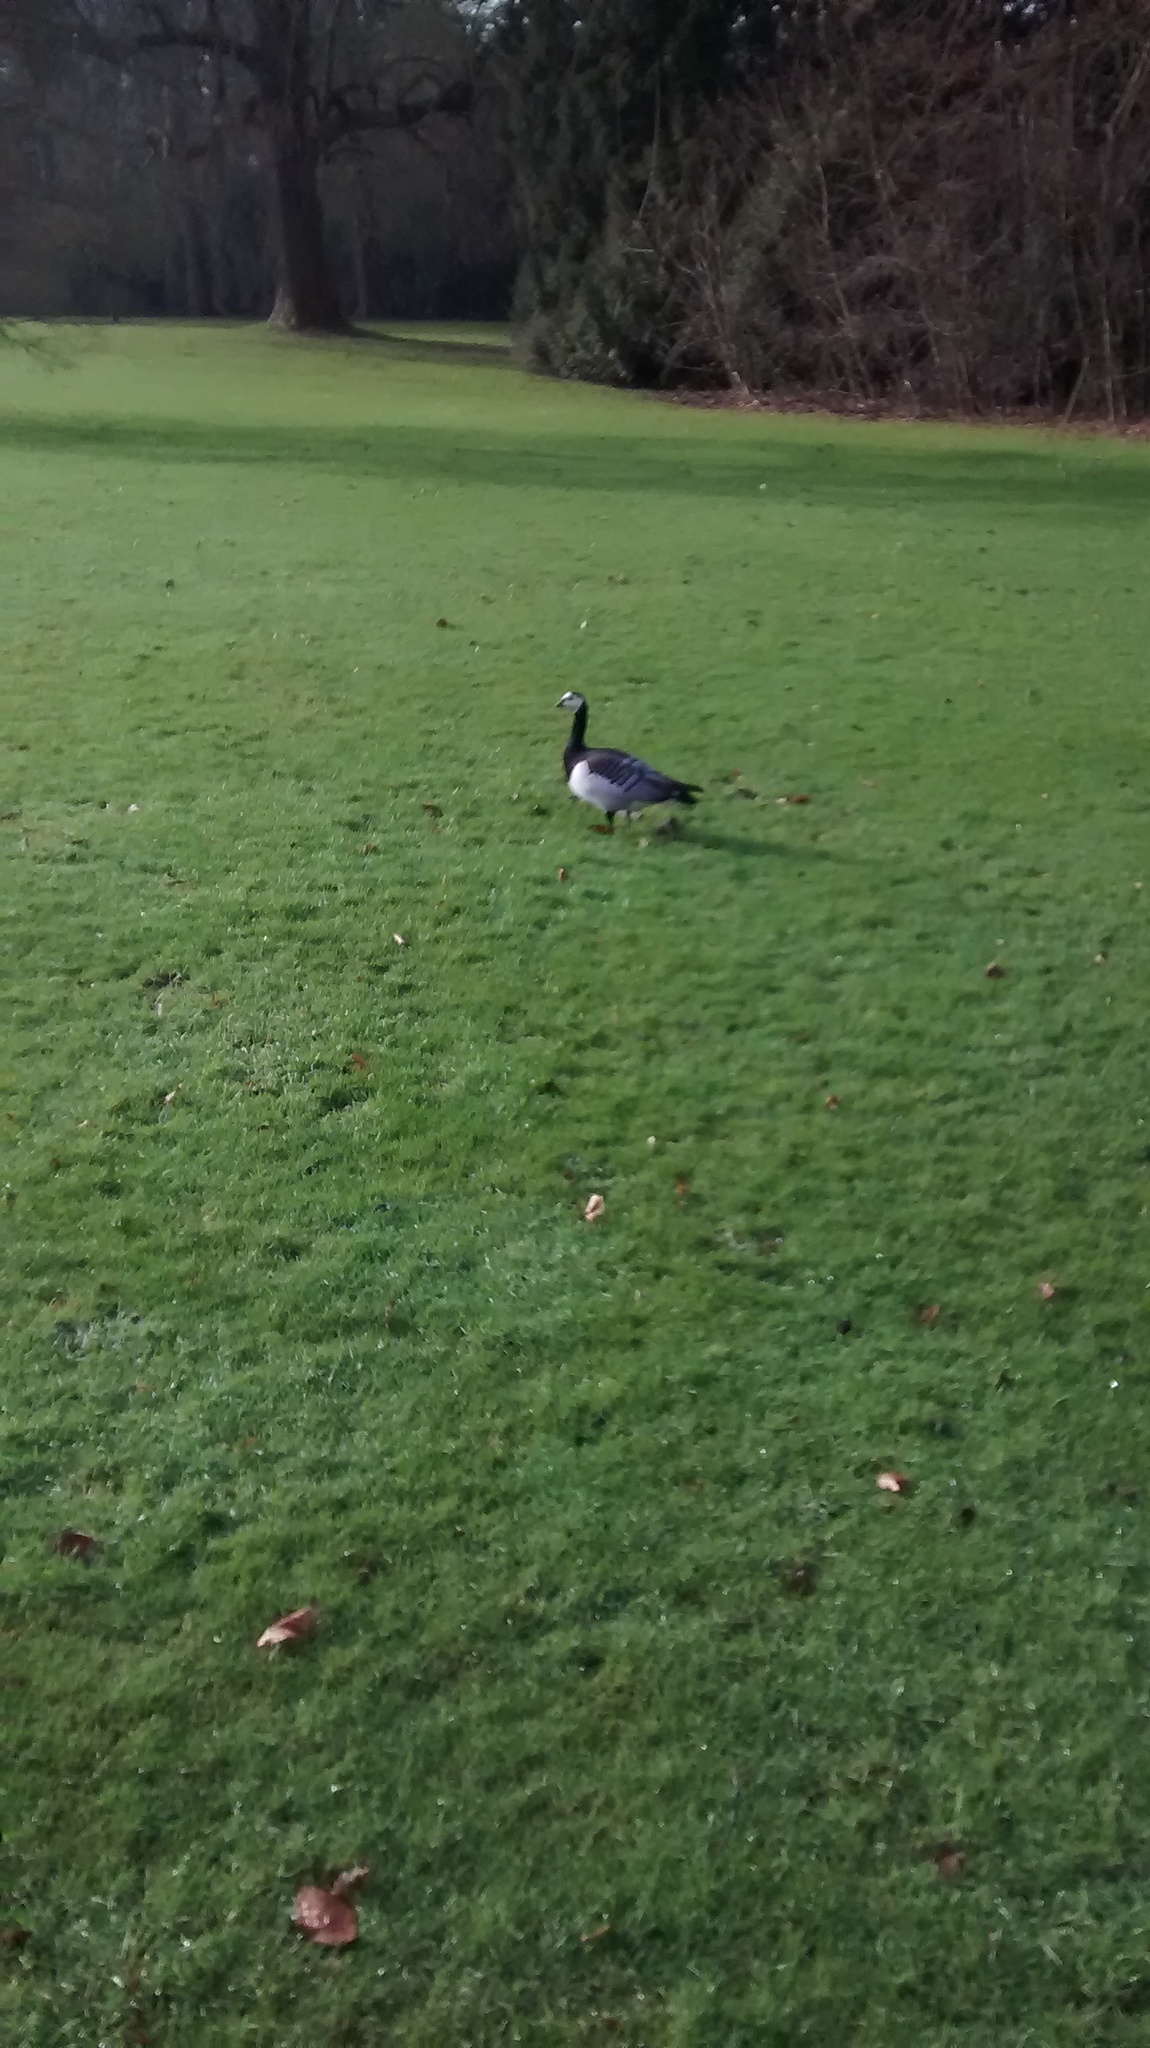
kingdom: Animalia
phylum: Chordata
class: Aves
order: Anseriformes
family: Anatidae
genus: Branta
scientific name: Branta leucopsis
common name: Barnacle goose
